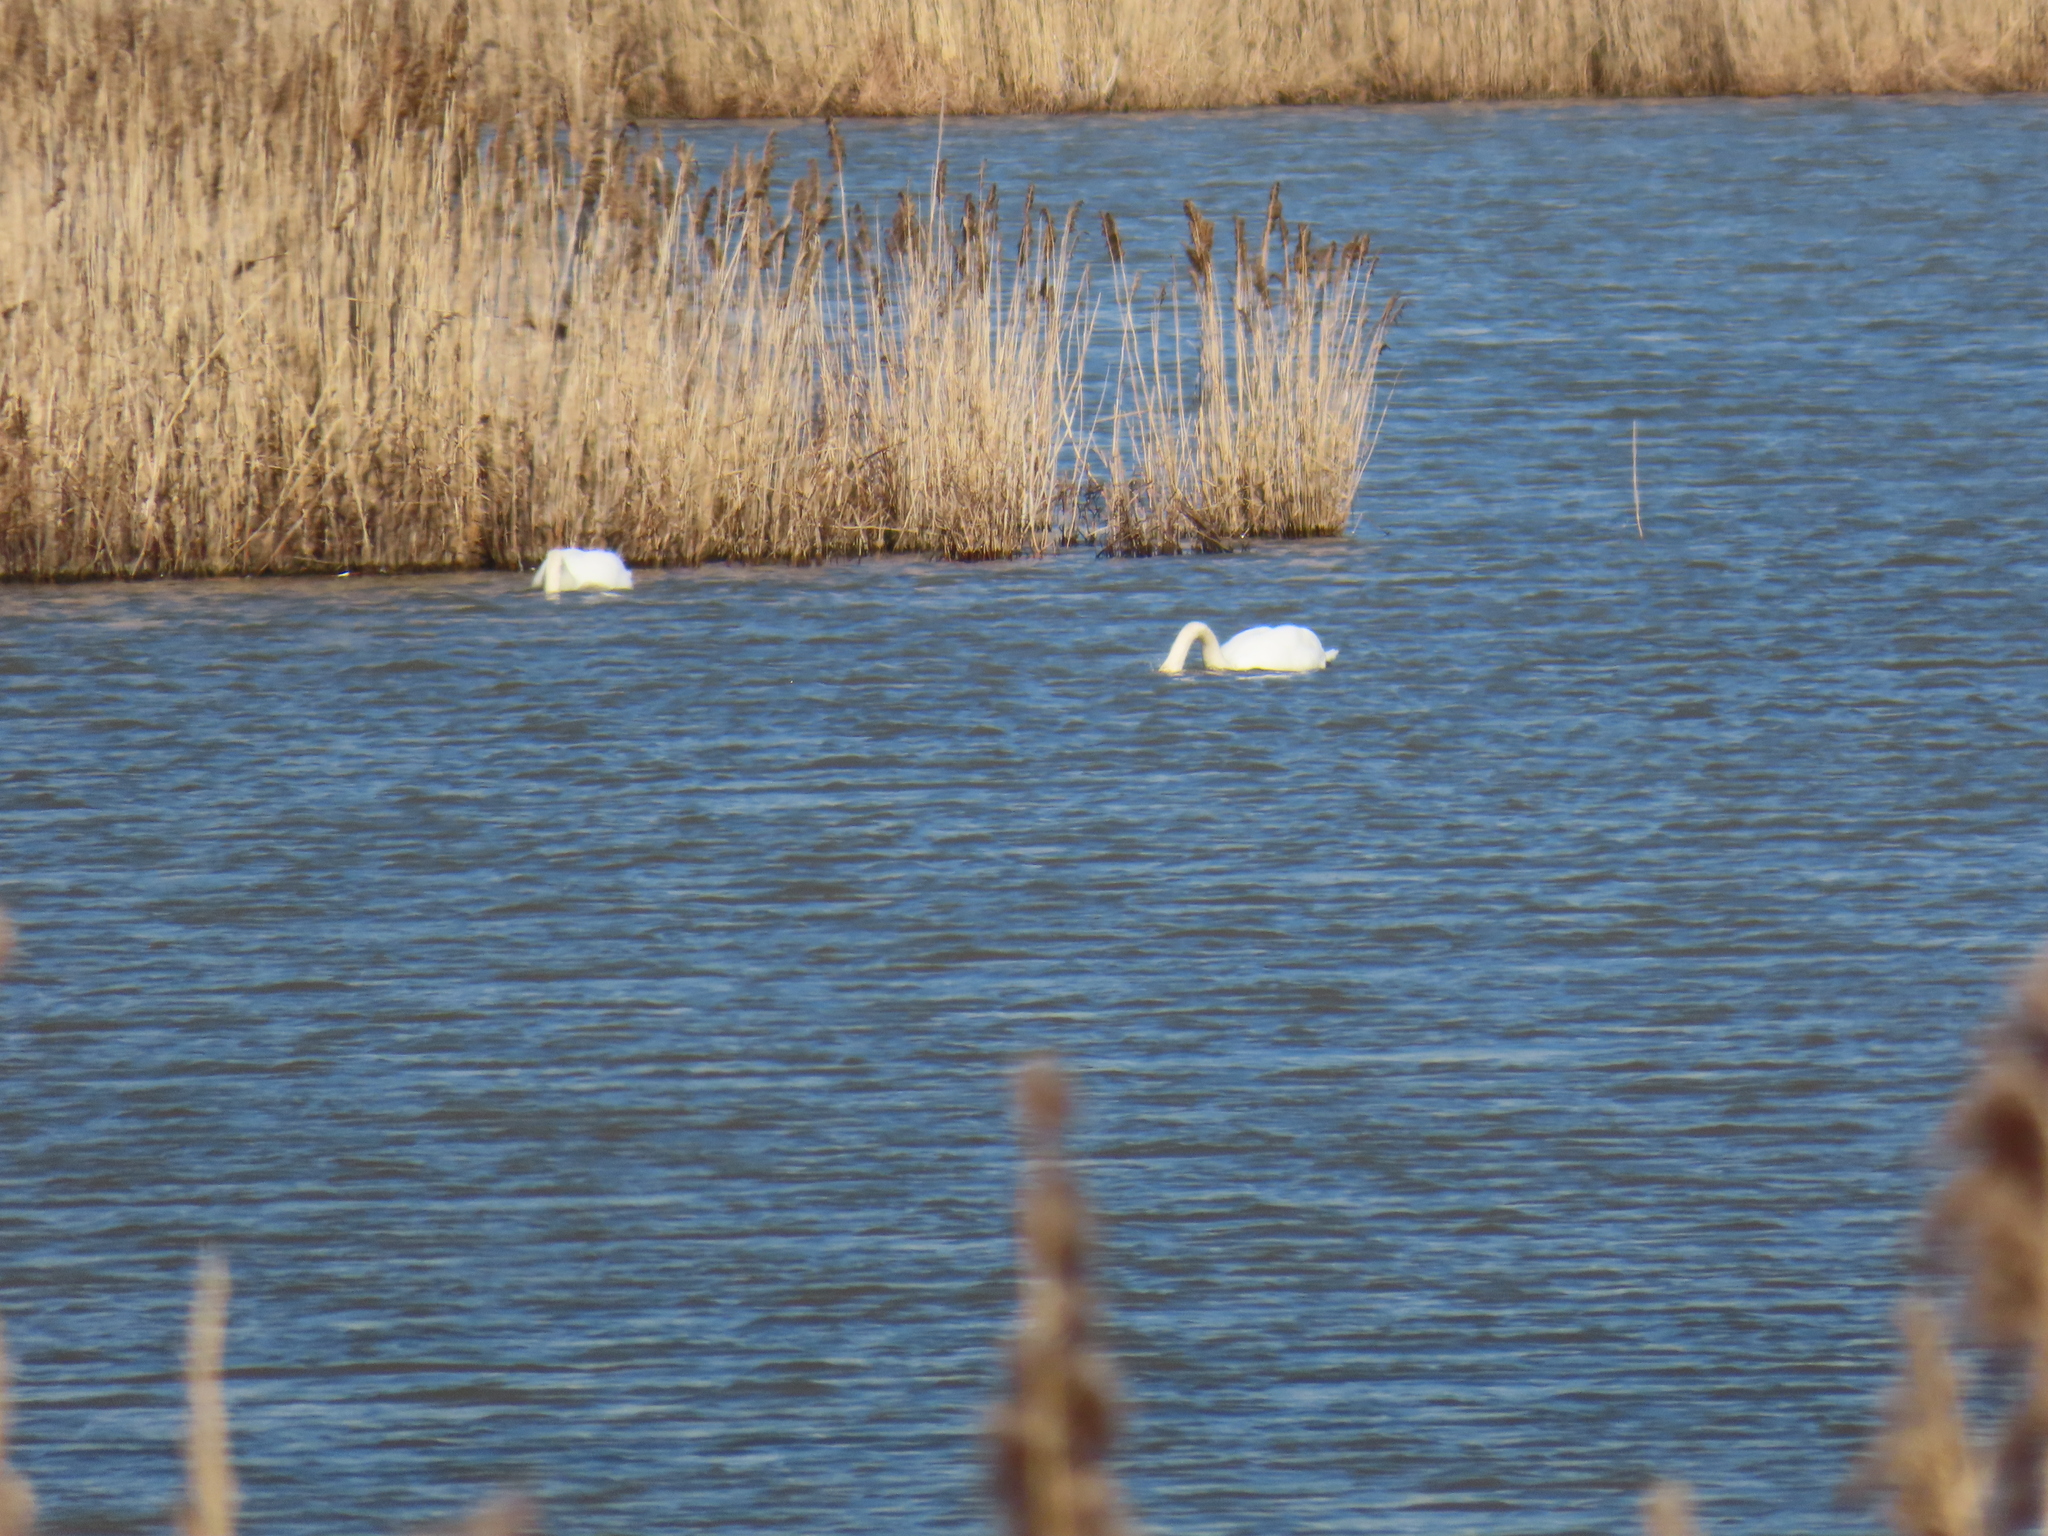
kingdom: Animalia
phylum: Chordata
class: Aves
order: Anseriformes
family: Anatidae
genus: Cygnus
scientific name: Cygnus olor
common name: Mute swan
